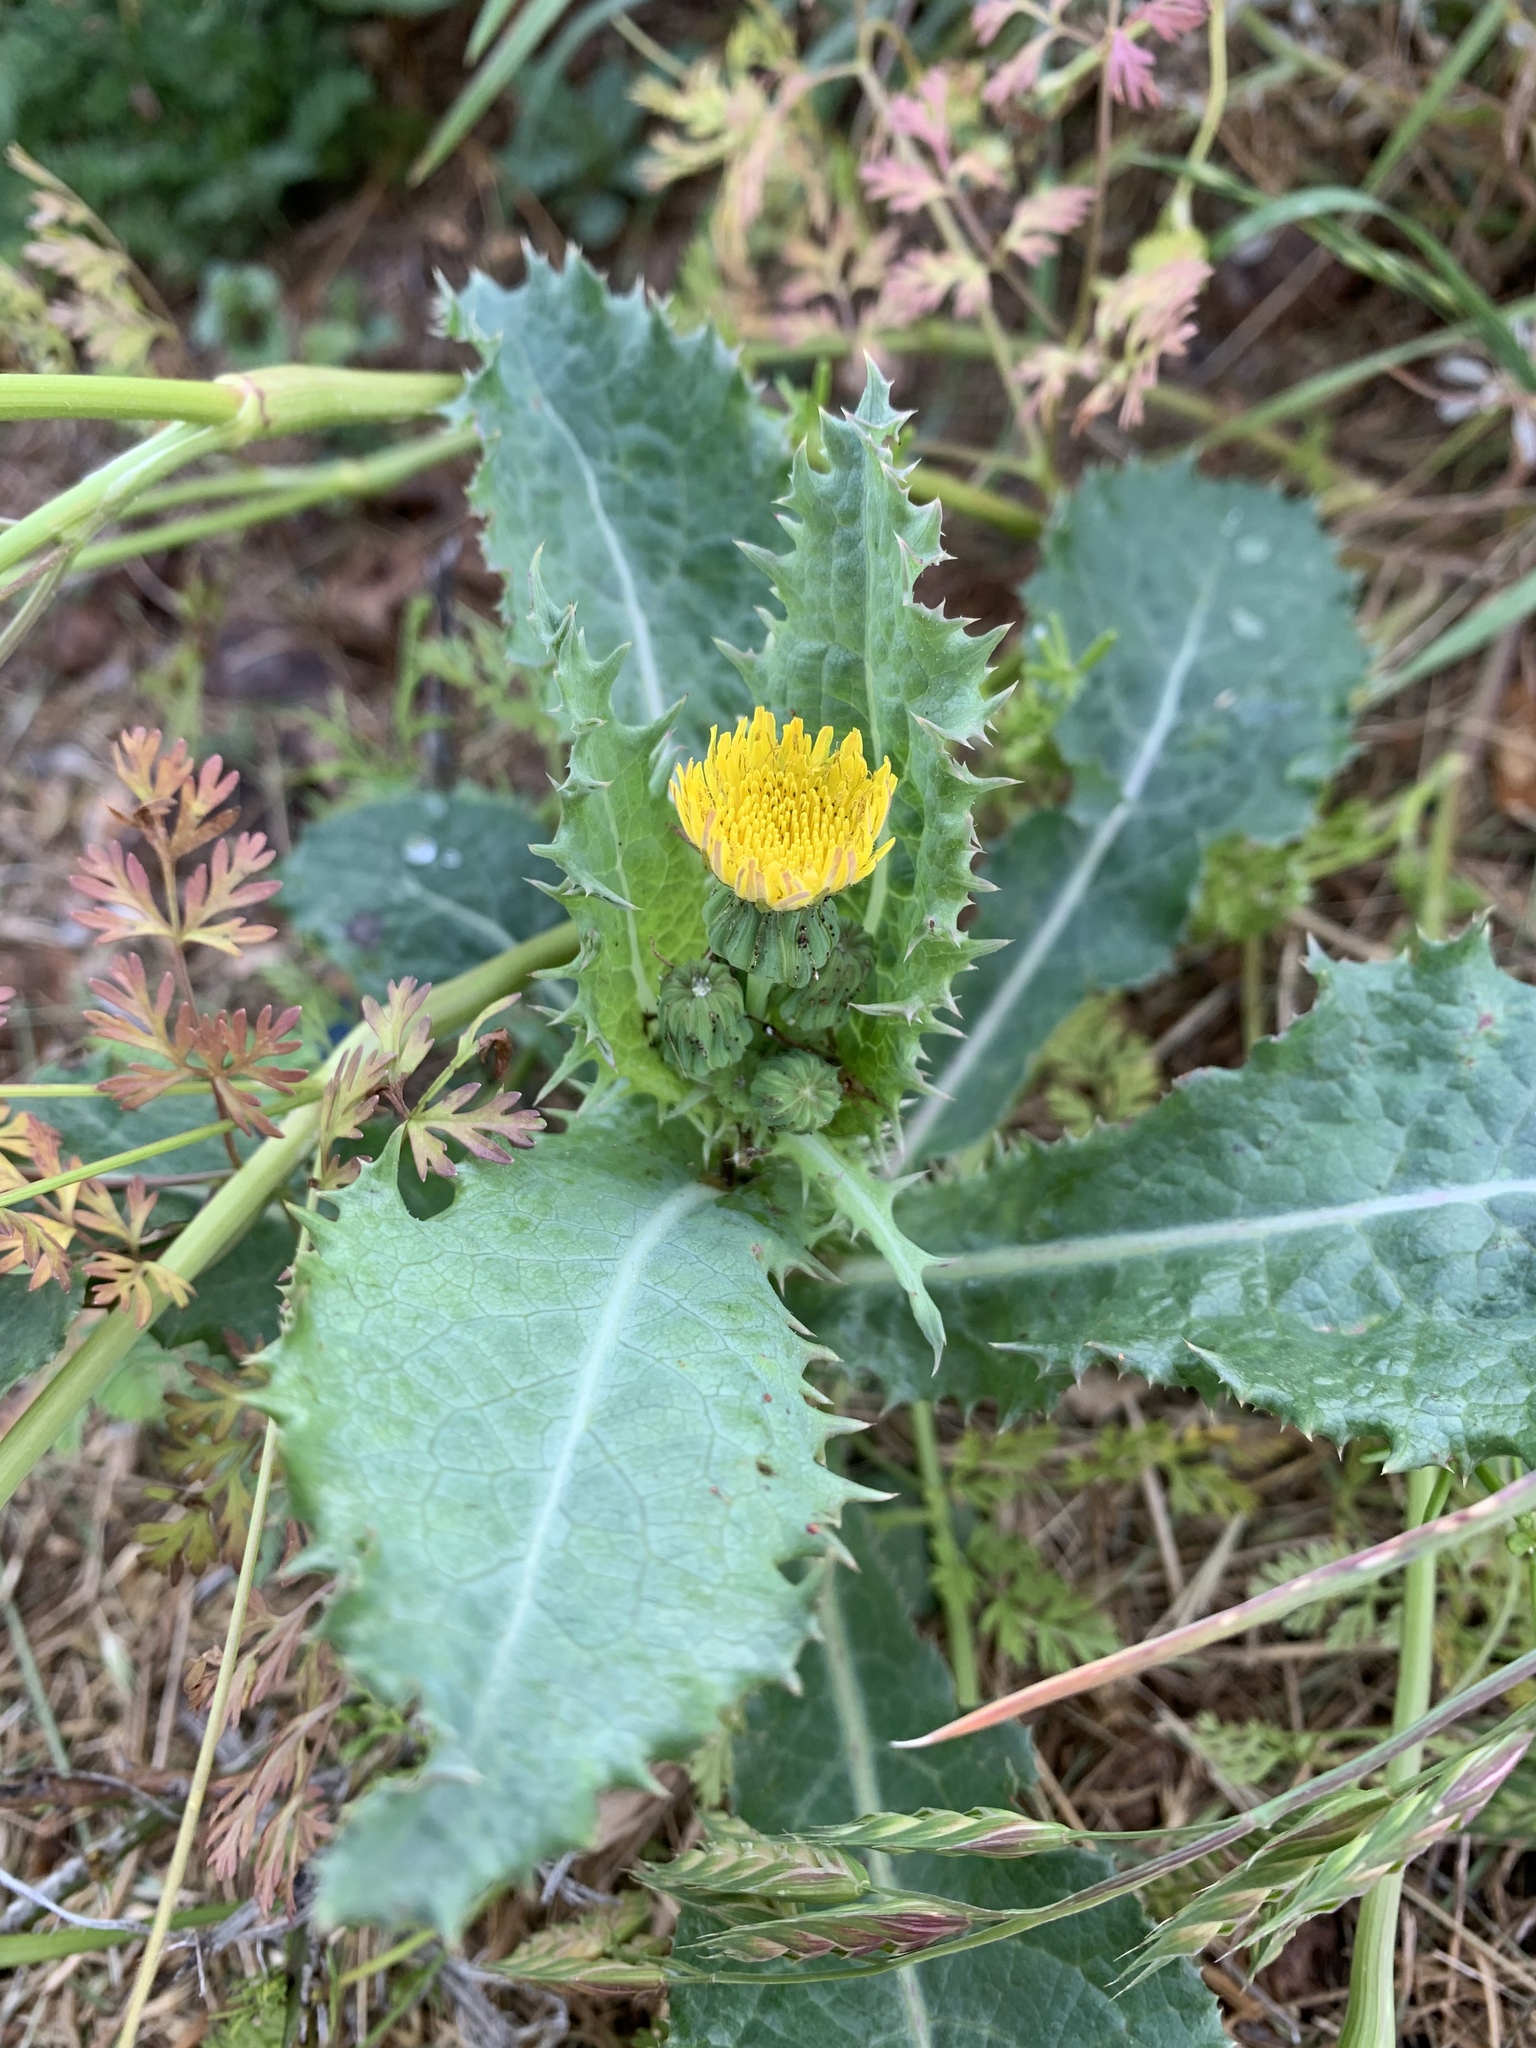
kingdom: Plantae
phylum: Tracheophyta
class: Magnoliopsida
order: Asterales
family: Asteraceae
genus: Sonchus
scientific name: Sonchus asper
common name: Prickly sow-thistle
